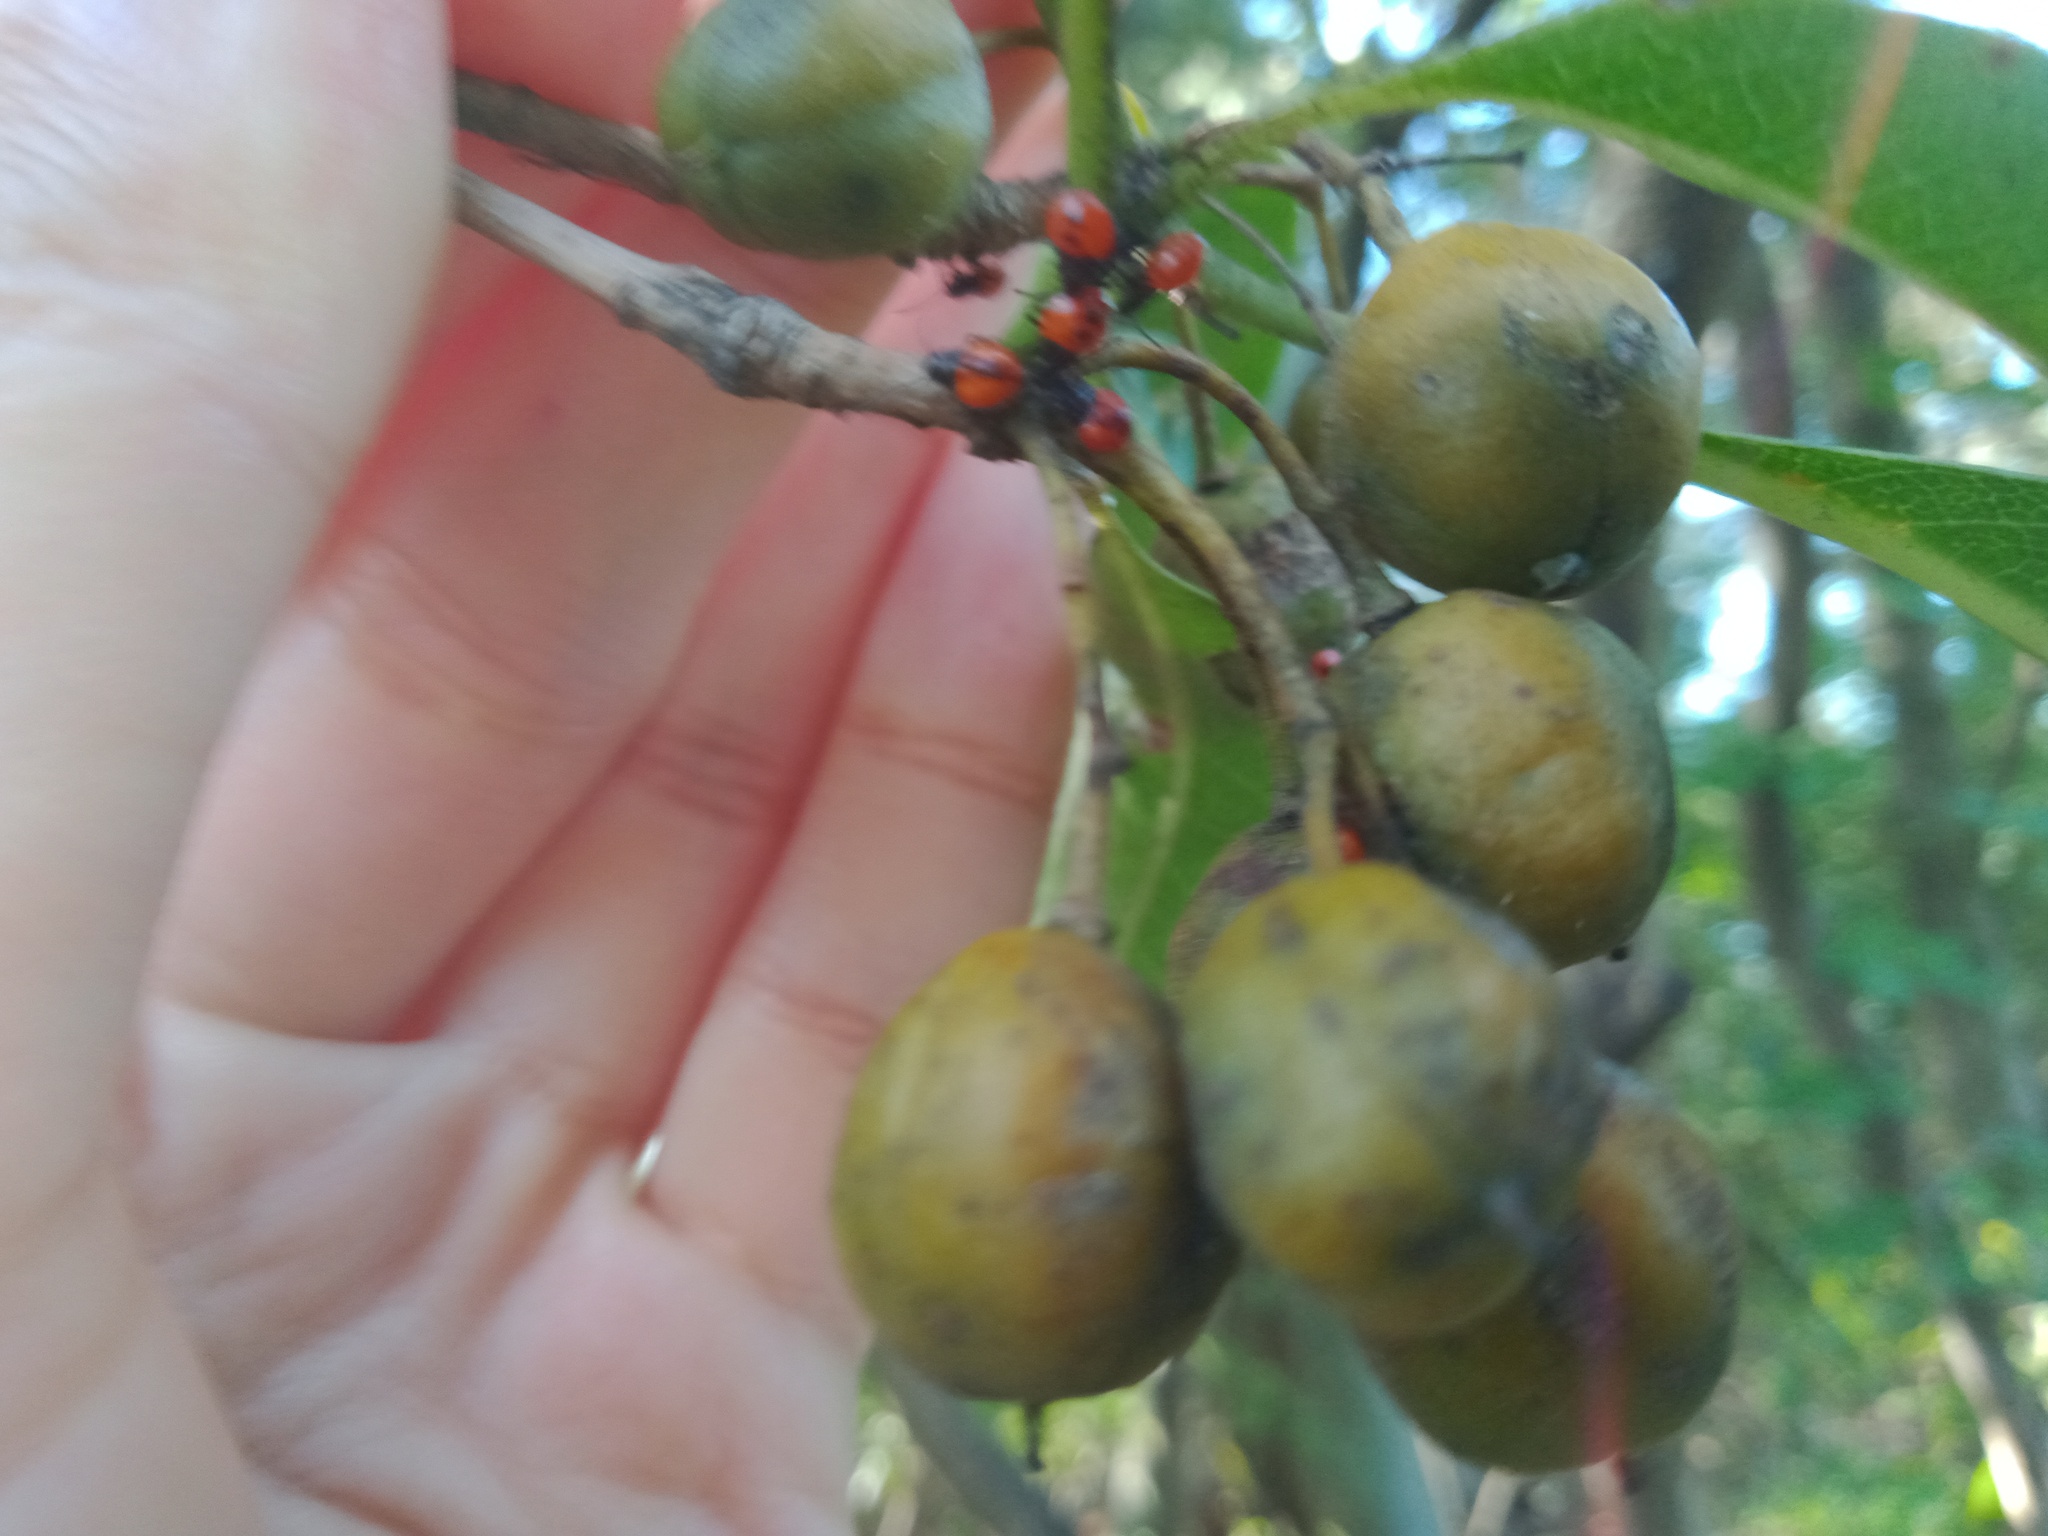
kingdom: Animalia
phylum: Arthropoda
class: Insecta
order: Hemiptera
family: Acanthosomatidae
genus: Sastragala
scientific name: Sastragala versicolor
